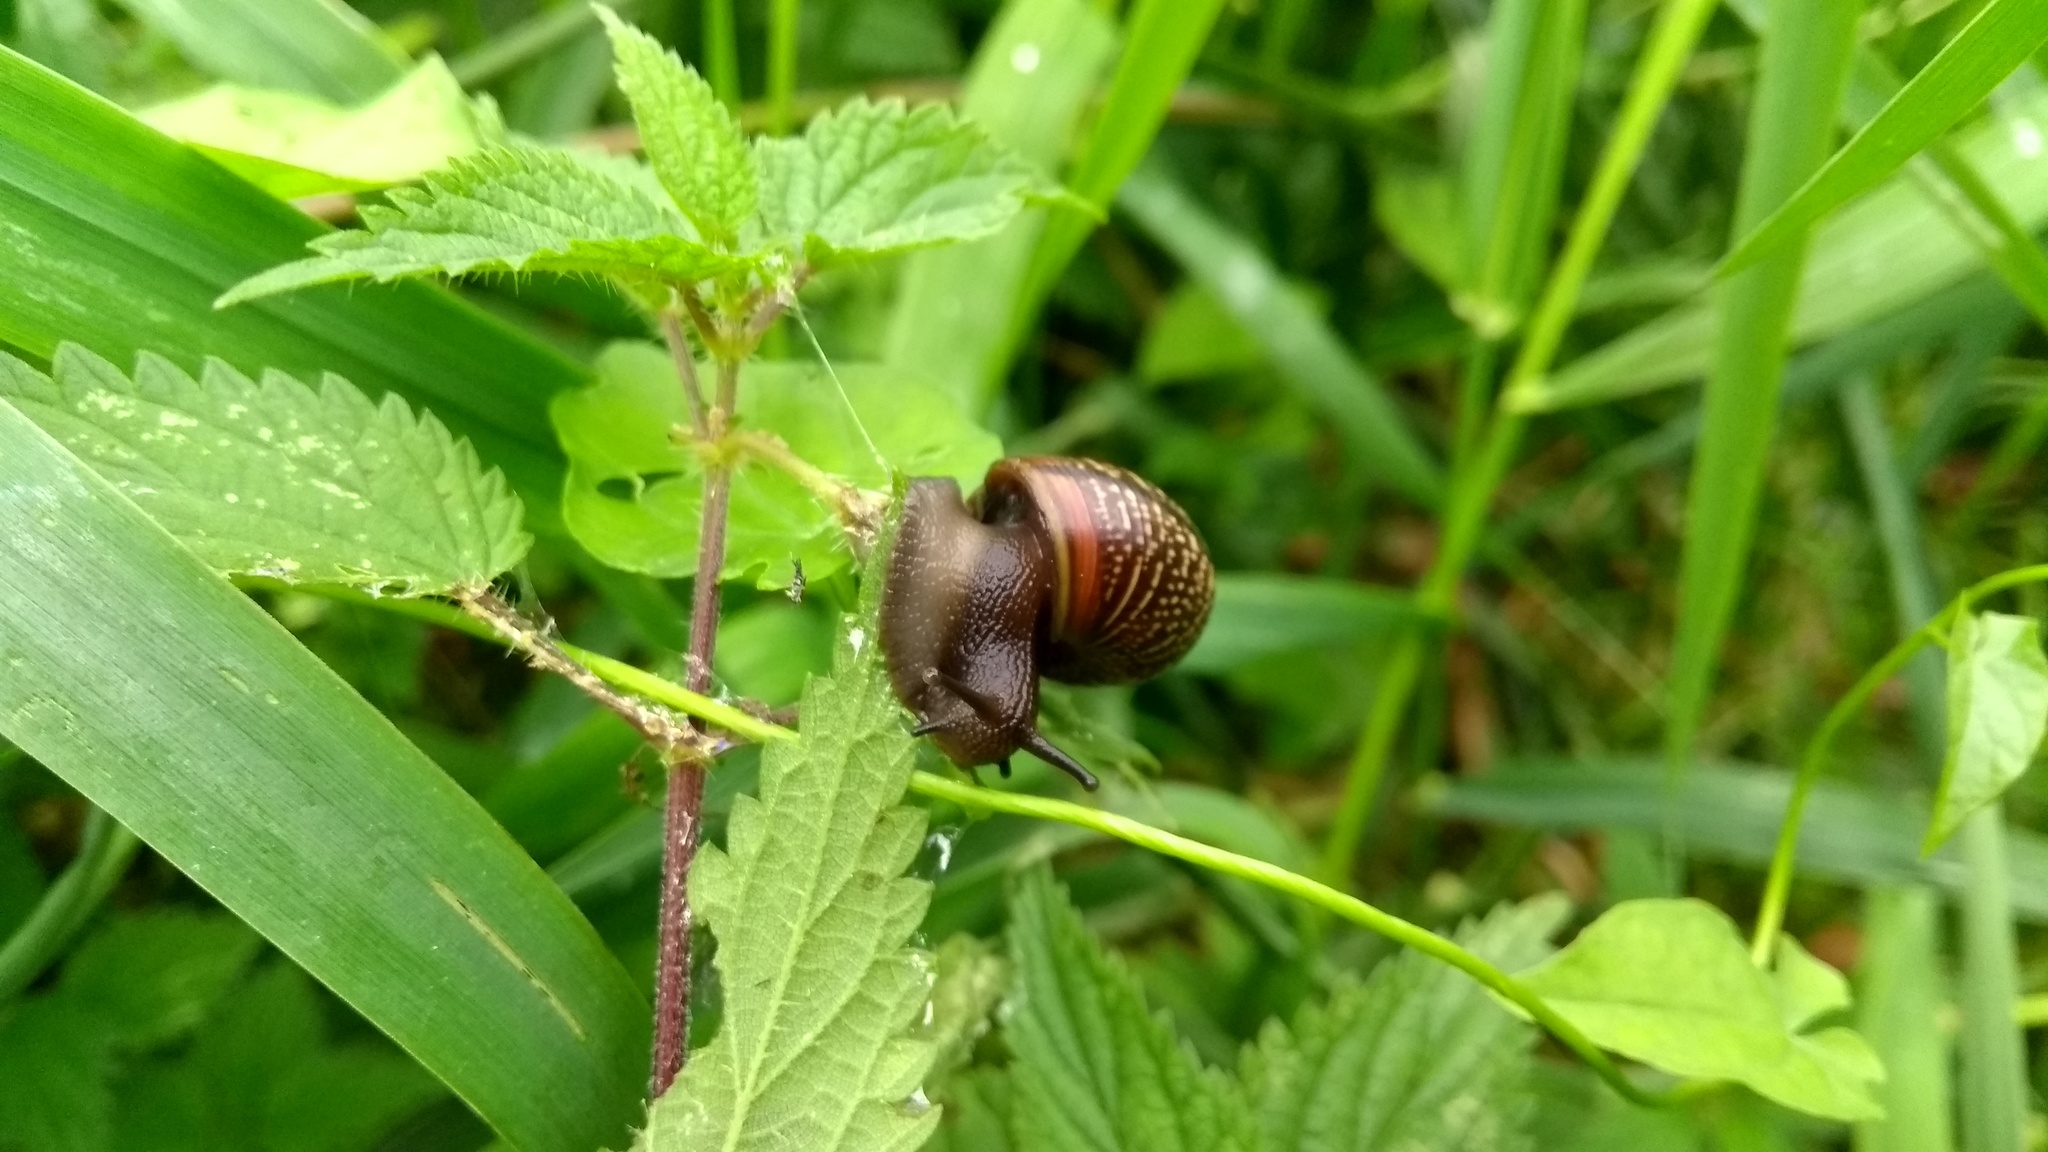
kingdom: Animalia
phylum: Mollusca
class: Gastropoda
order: Stylommatophora
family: Helicidae
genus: Arianta
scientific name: Arianta arbustorum
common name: Copse snail
